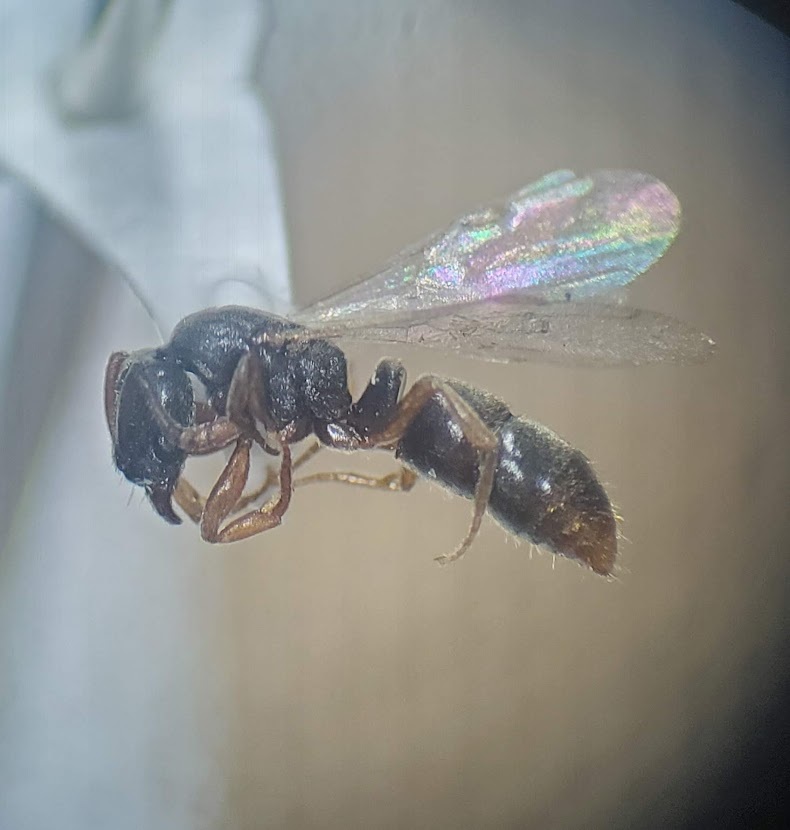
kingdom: Animalia
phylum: Arthropoda
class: Insecta
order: Hymenoptera
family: Formicidae
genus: Ponera
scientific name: Ponera pennsylvanica
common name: Pennsylvania ponera
